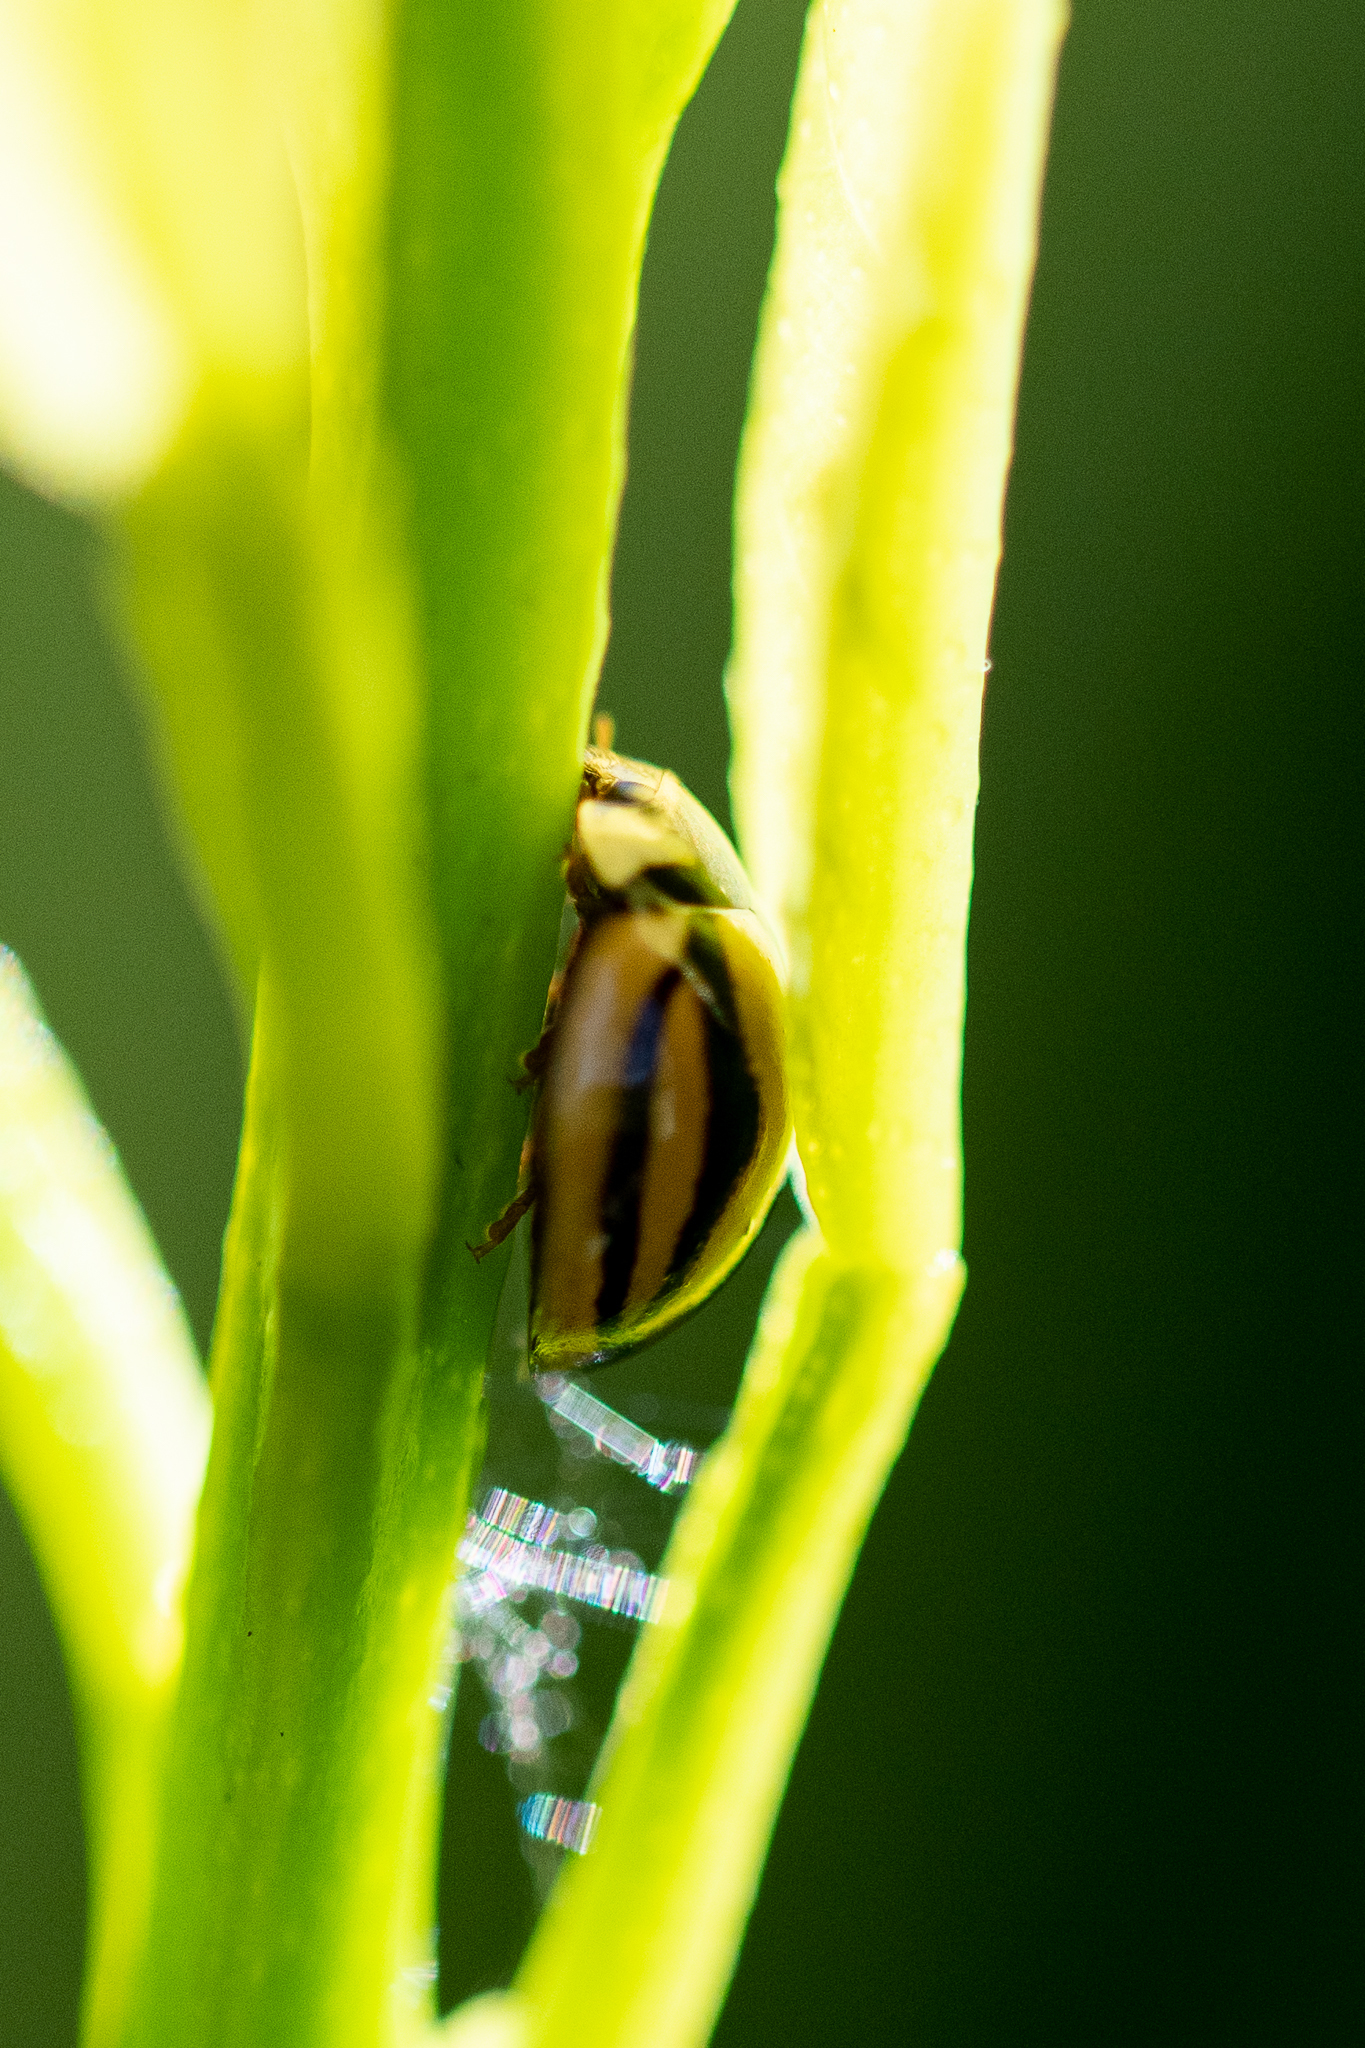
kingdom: Animalia
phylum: Arthropoda
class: Insecta
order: Coleoptera
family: Coccinellidae
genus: Cheilomenes
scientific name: Cheilomenes propinqua
